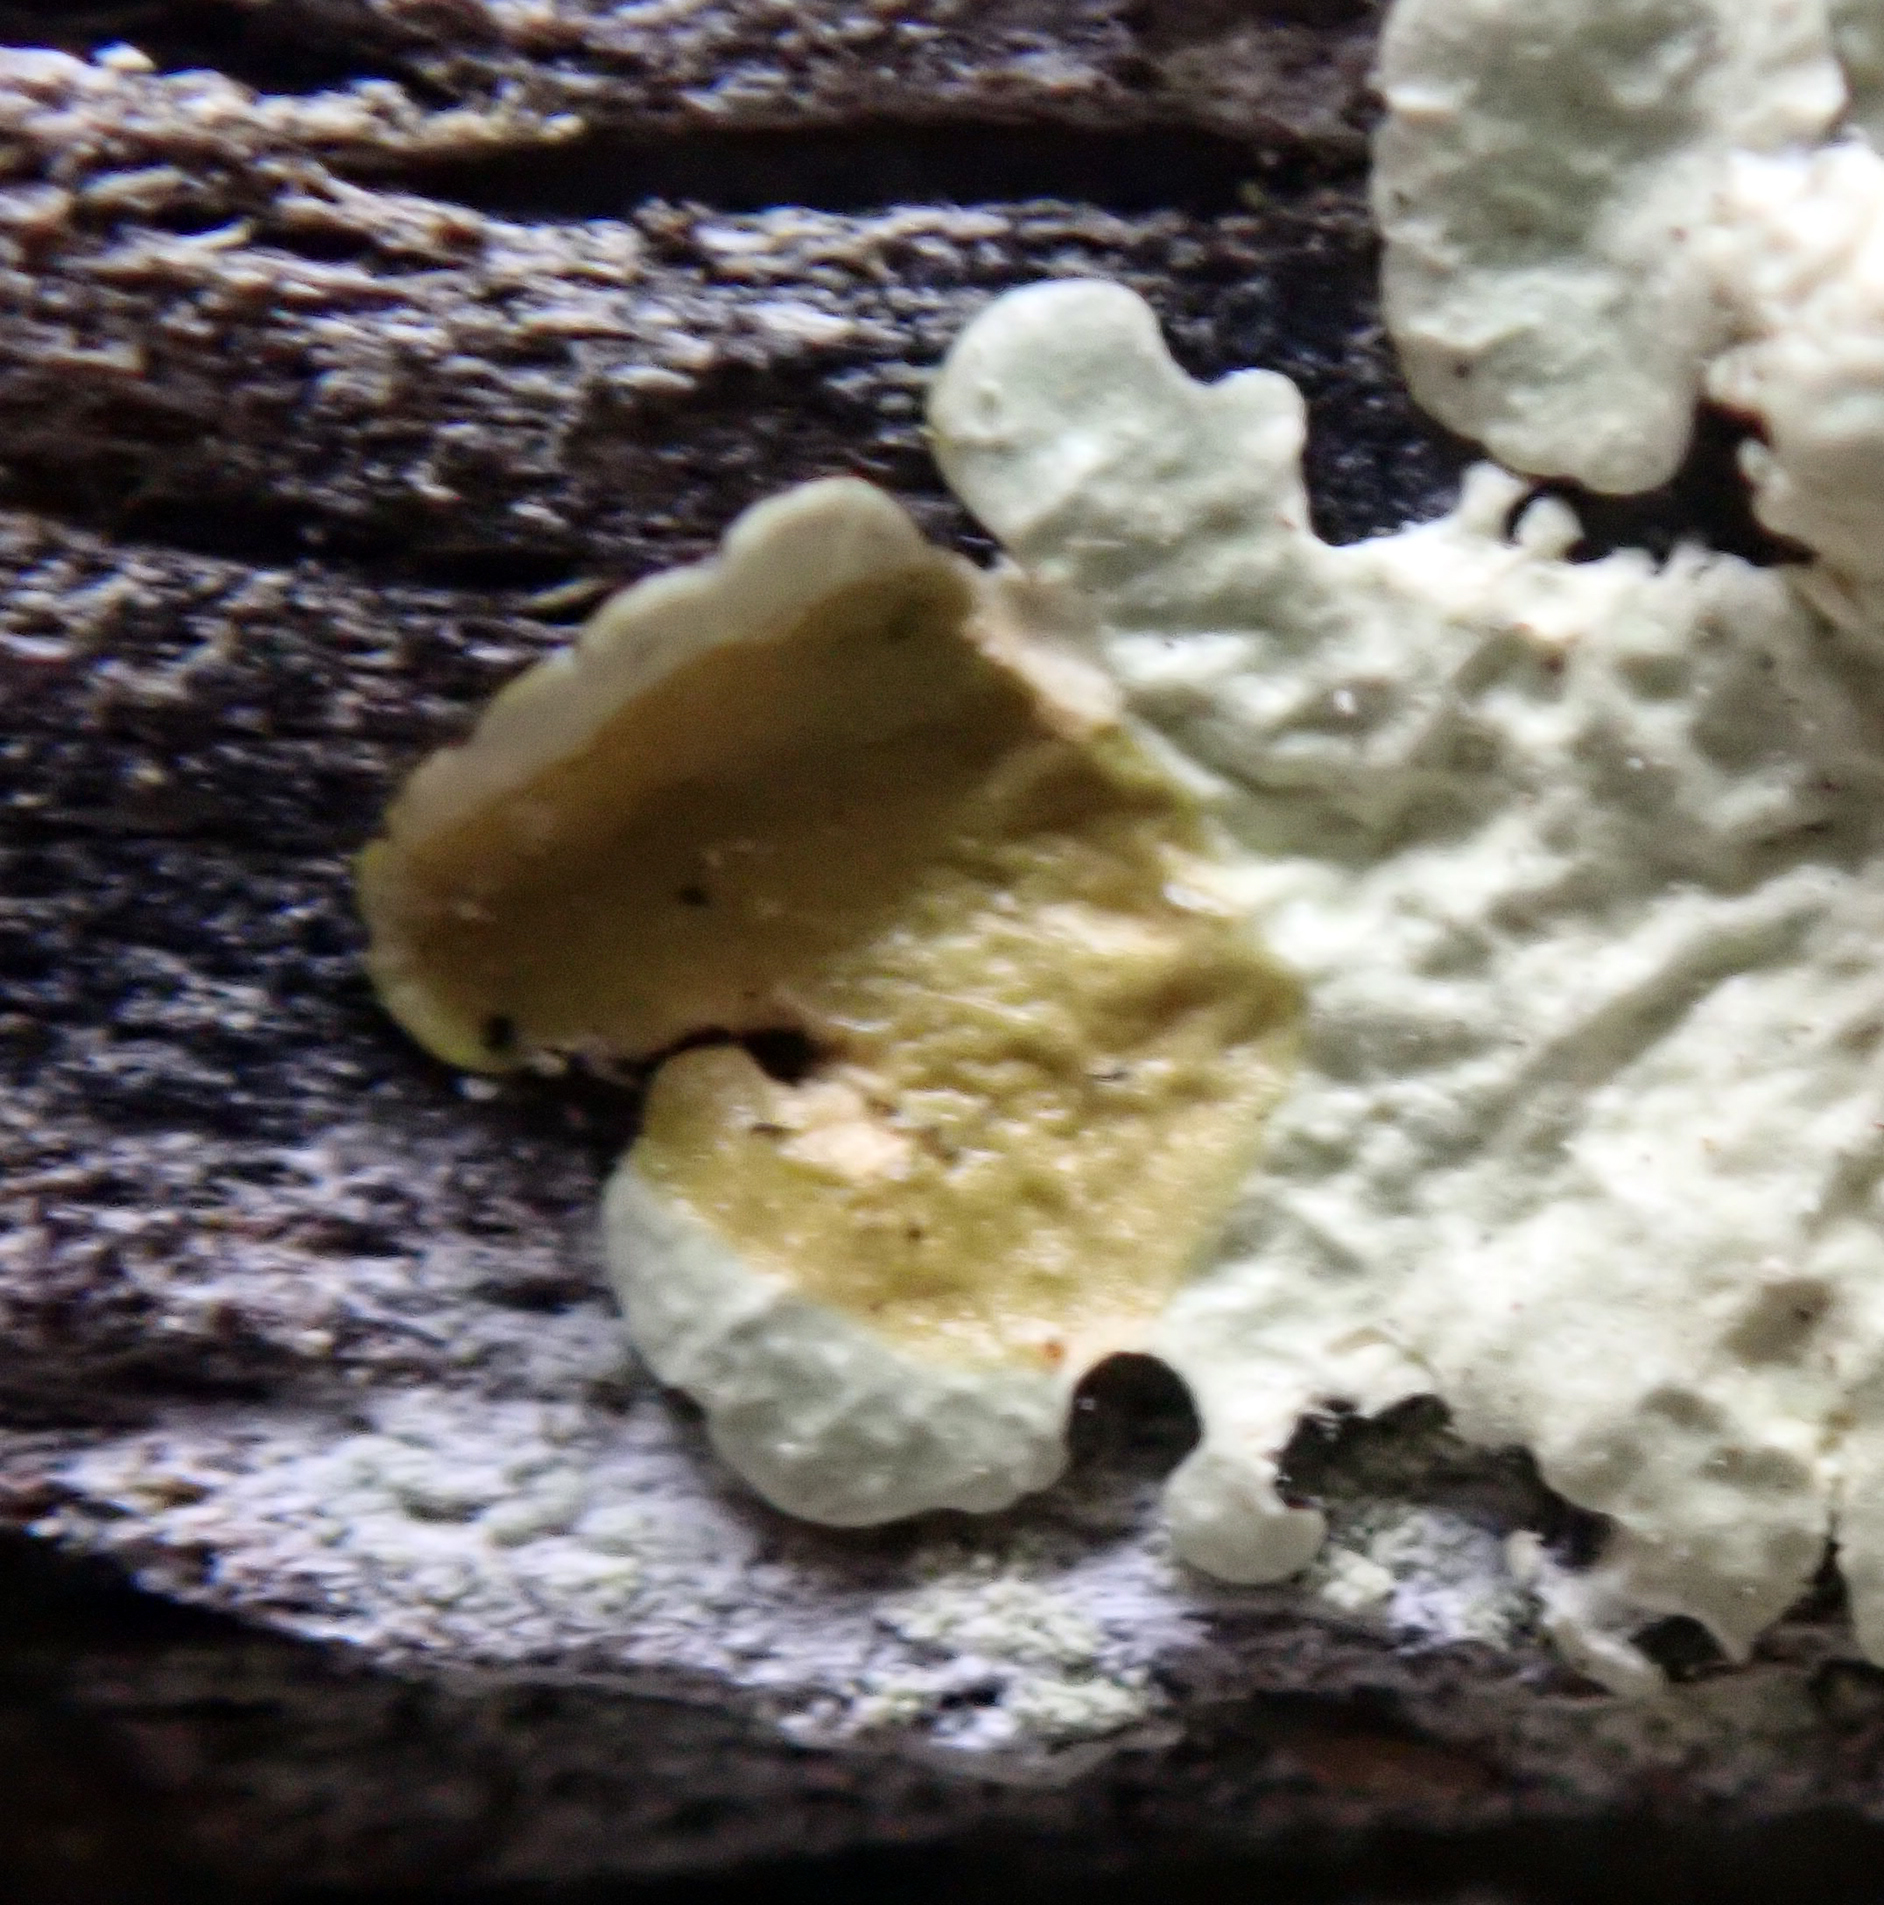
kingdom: Fungi
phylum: Ascomycota
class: Lecanoromycetes
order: Lecanorales
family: Parmeliaceae
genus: Flavoparmelia
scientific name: Flavoparmelia haywardiana
